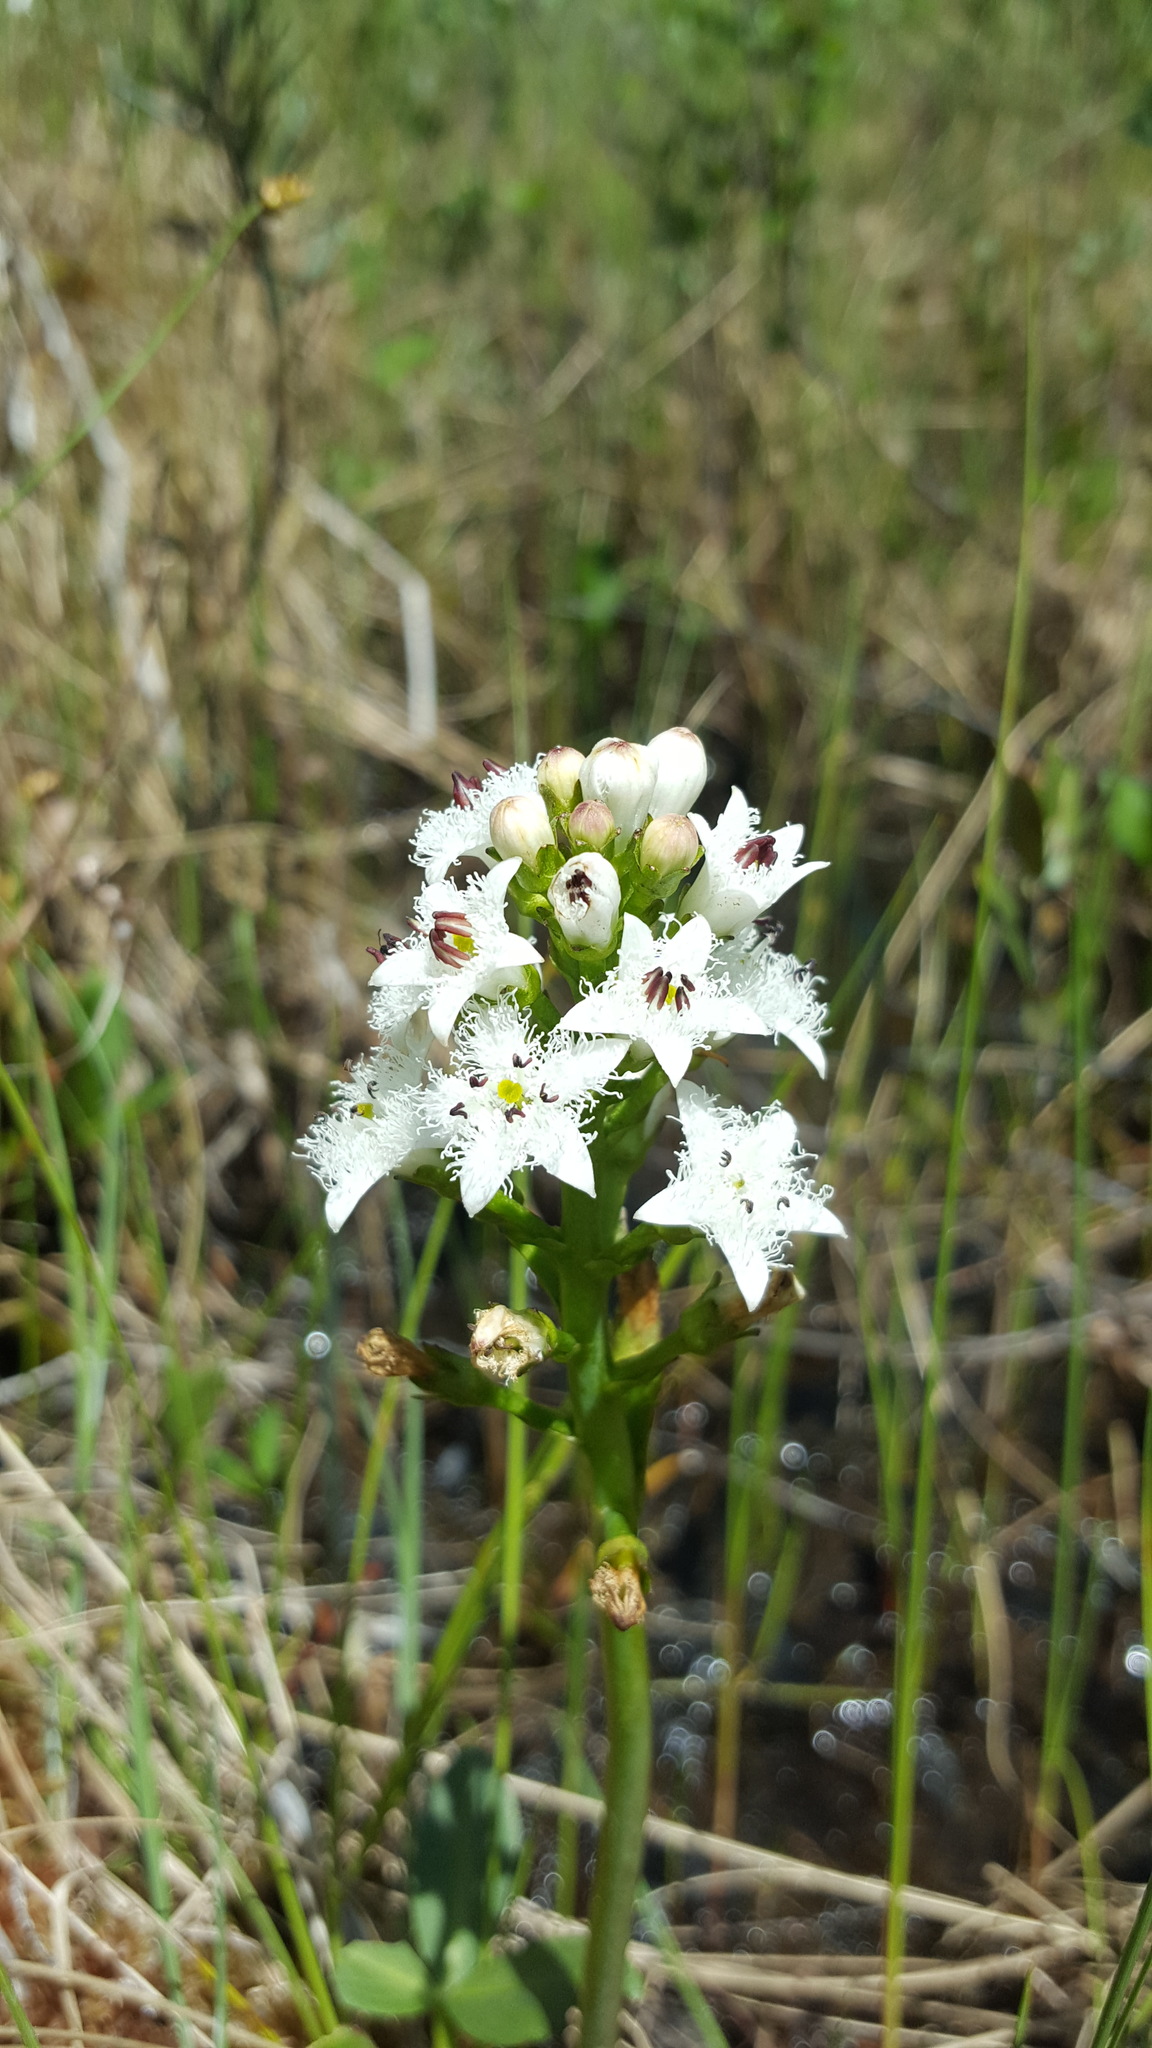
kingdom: Plantae
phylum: Tracheophyta
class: Magnoliopsida
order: Asterales
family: Menyanthaceae
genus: Menyanthes
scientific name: Menyanthes trifoliata
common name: Bogbean
